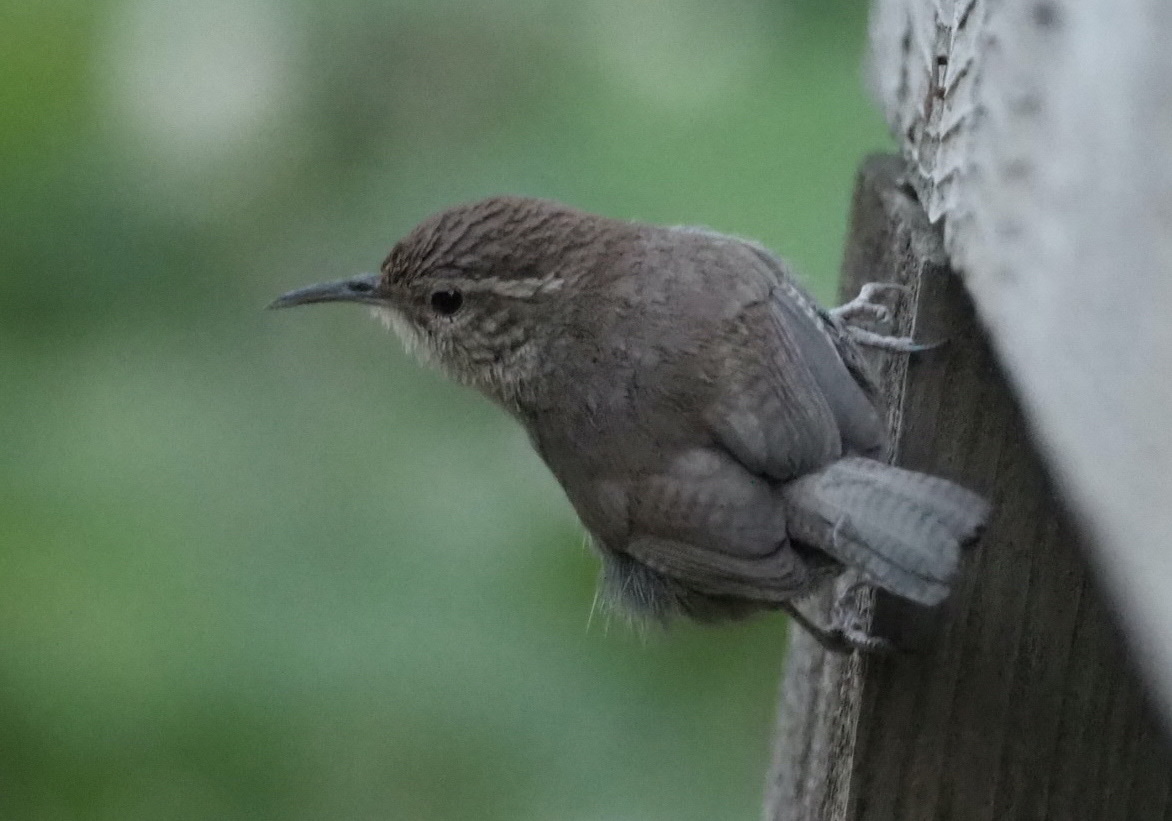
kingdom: Animalia
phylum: Chordata
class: Aves
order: Passeriformes
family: Troglodytidae
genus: Thryomanes
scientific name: Thryomanes bewickii
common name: Bewick's wren
